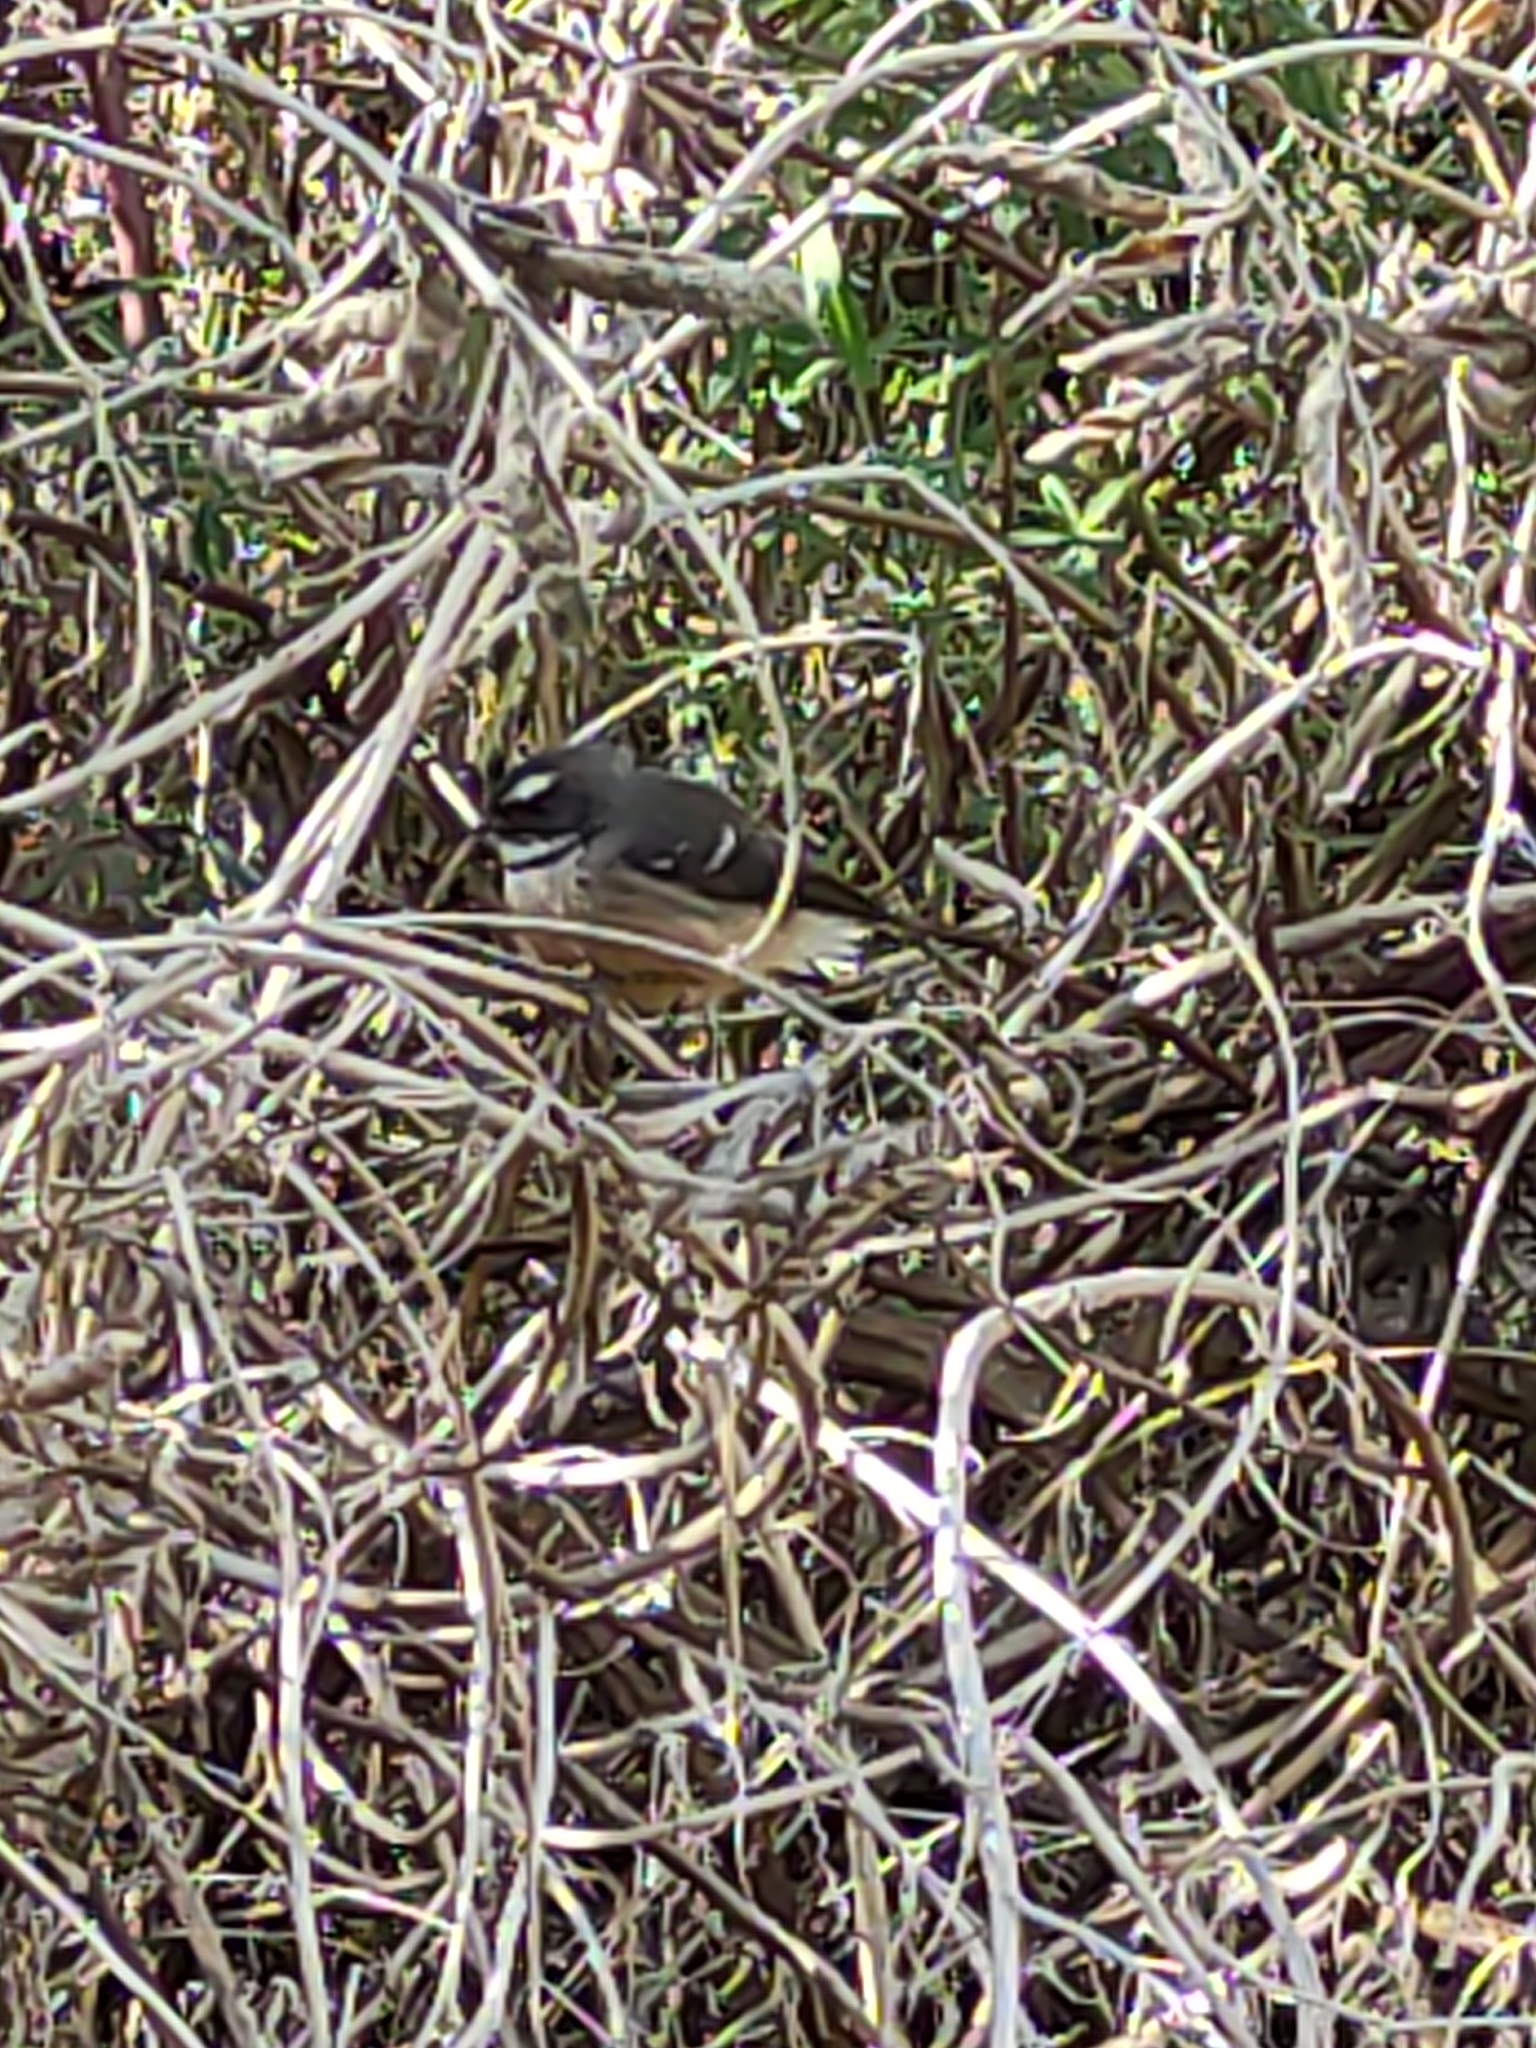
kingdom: Animalia
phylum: Chordata
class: Aves
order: Passeriformes
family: Rhipiduridae
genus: Rhipidura
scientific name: Rhipidura fuliginosa
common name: New zealand fantail
